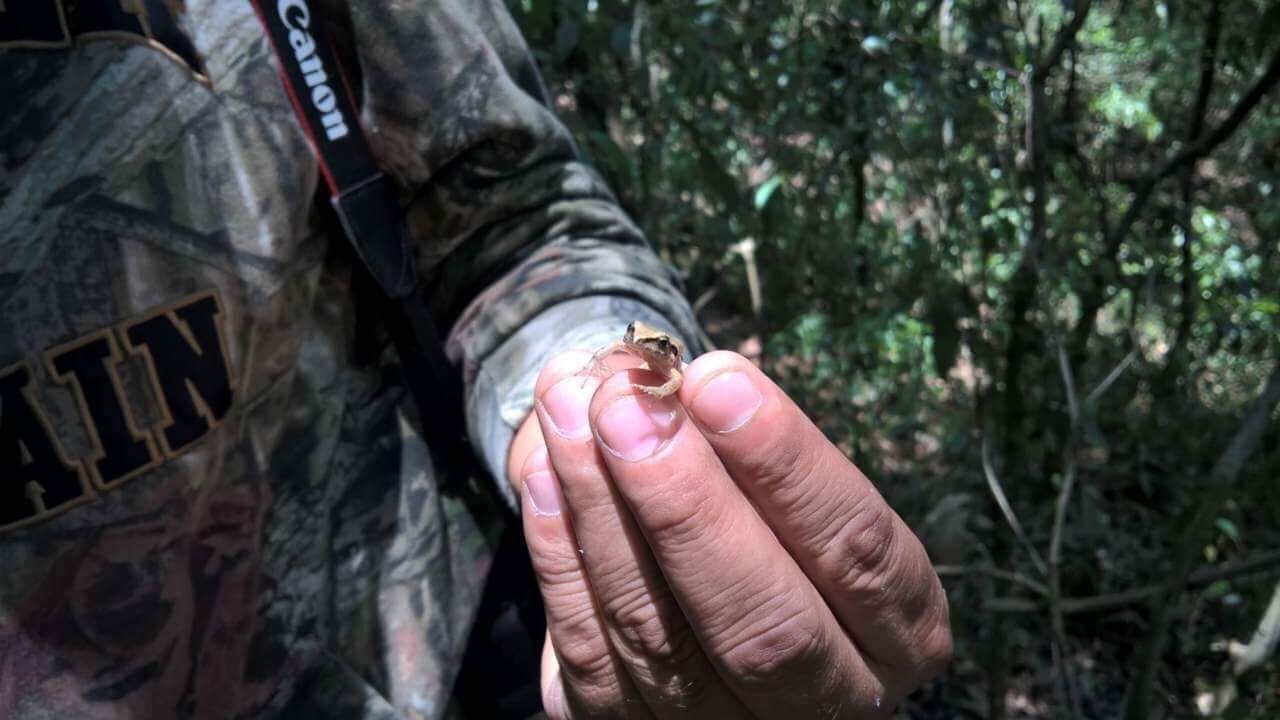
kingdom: Animalia
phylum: Chordata
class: Amphibia
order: Anura
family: Craugastoridae
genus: Craugastor
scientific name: Craugastor rhodopis
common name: Polymorphic robber frog
